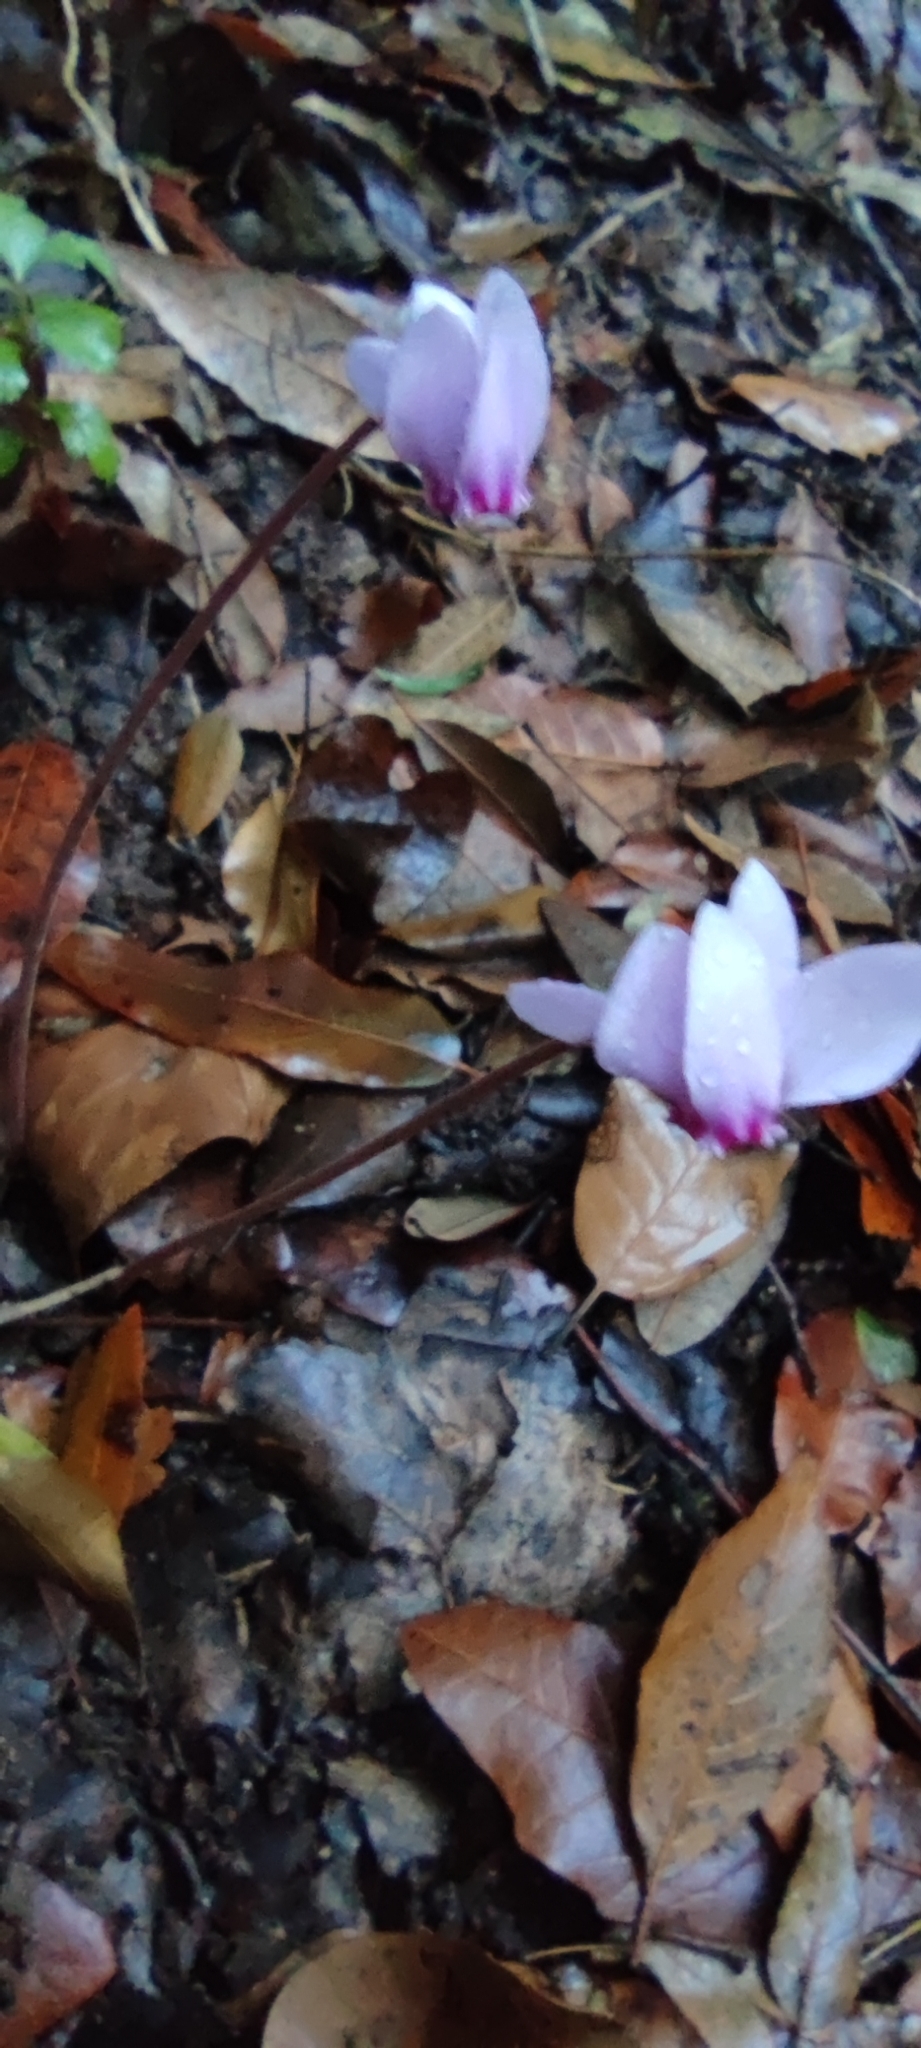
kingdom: Plantae
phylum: Tracheophyta
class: Magnoliopsida
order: Ericales
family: Primulaceae
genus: Cyclamen
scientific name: Cyclamen hederifolium
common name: Sowbread
